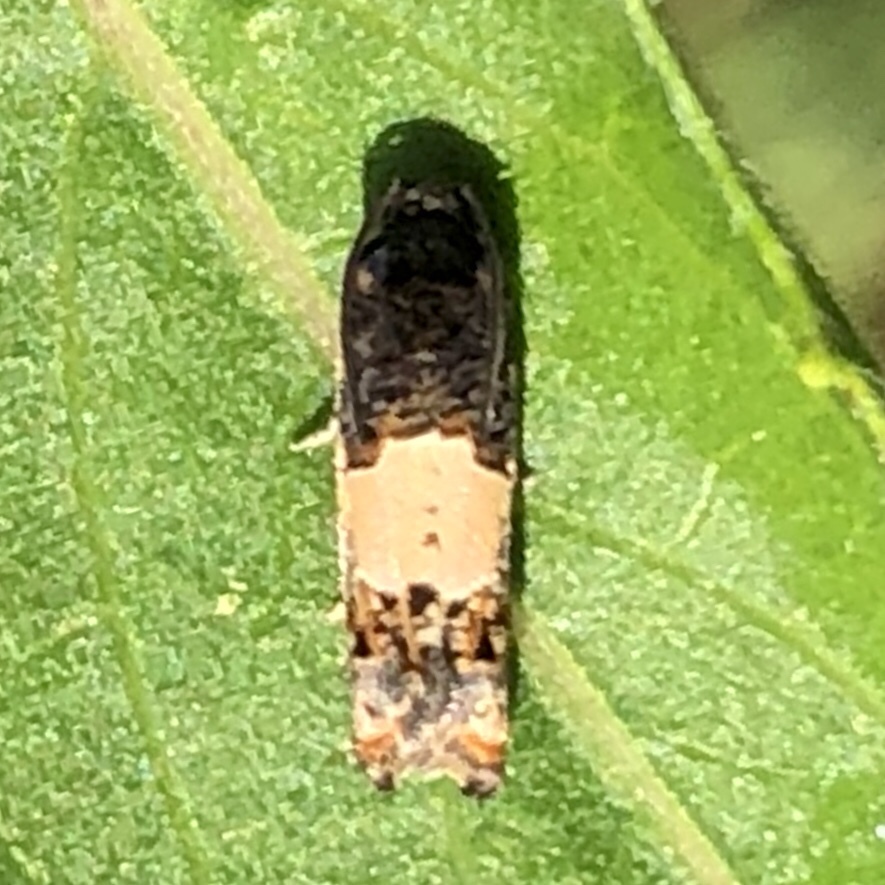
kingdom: Animalia
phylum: Arthropoda
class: Insecta
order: Lepidoptera
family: Tortricidae
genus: Epiblema
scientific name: Epiblema glenni
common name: Glenn's epiblema
